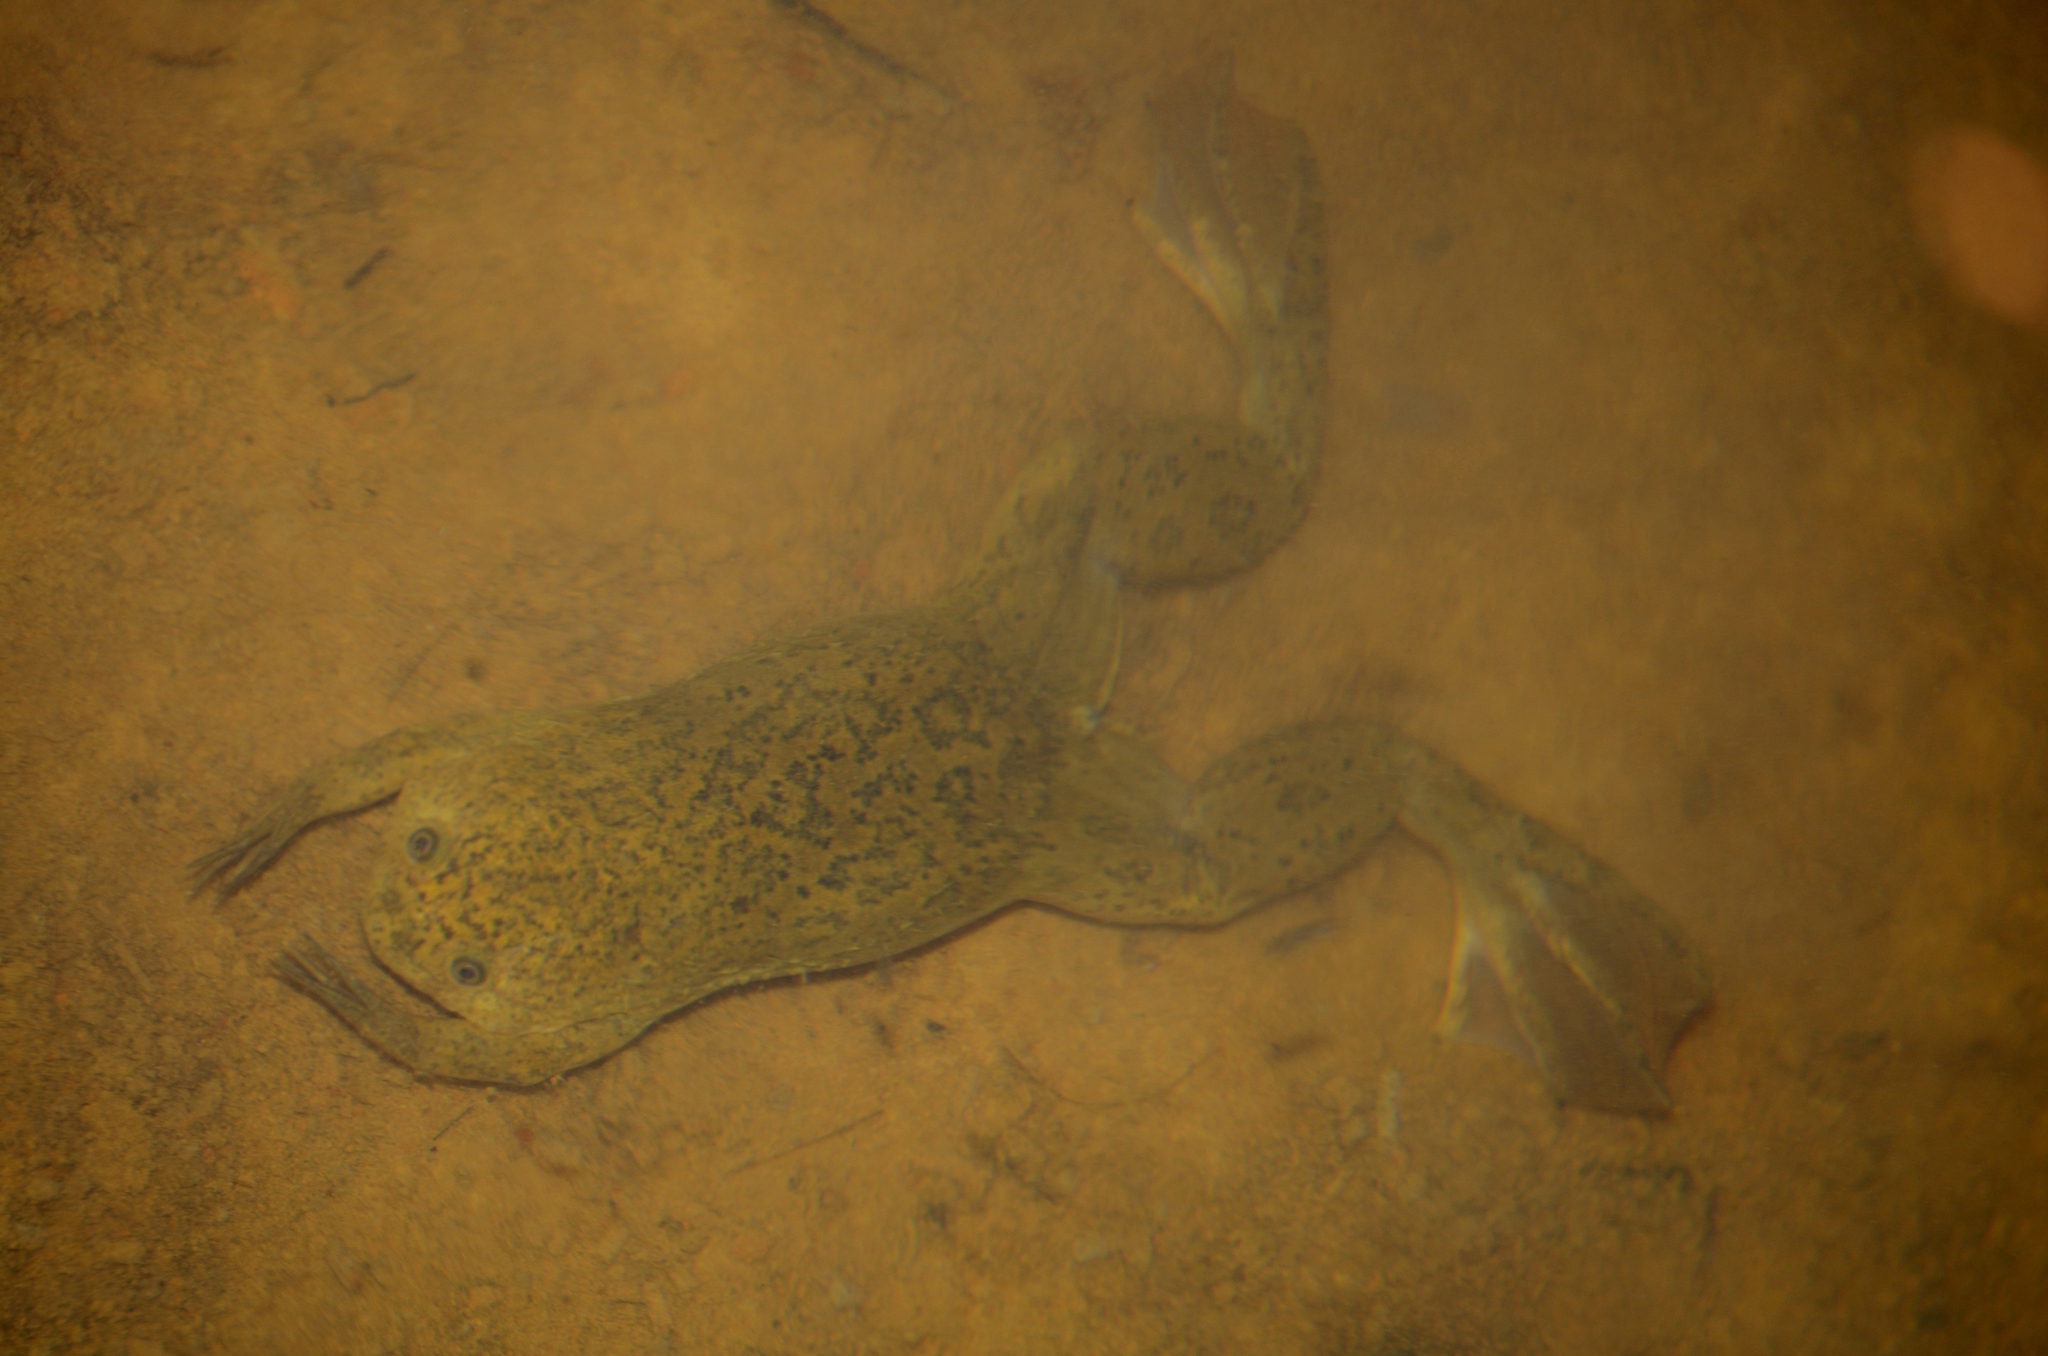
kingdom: Animalia
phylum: Chordata
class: Amphibia
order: Anura
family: Pipidae
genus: Xenopus
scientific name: Xenopus laevis
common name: African clawed frog
